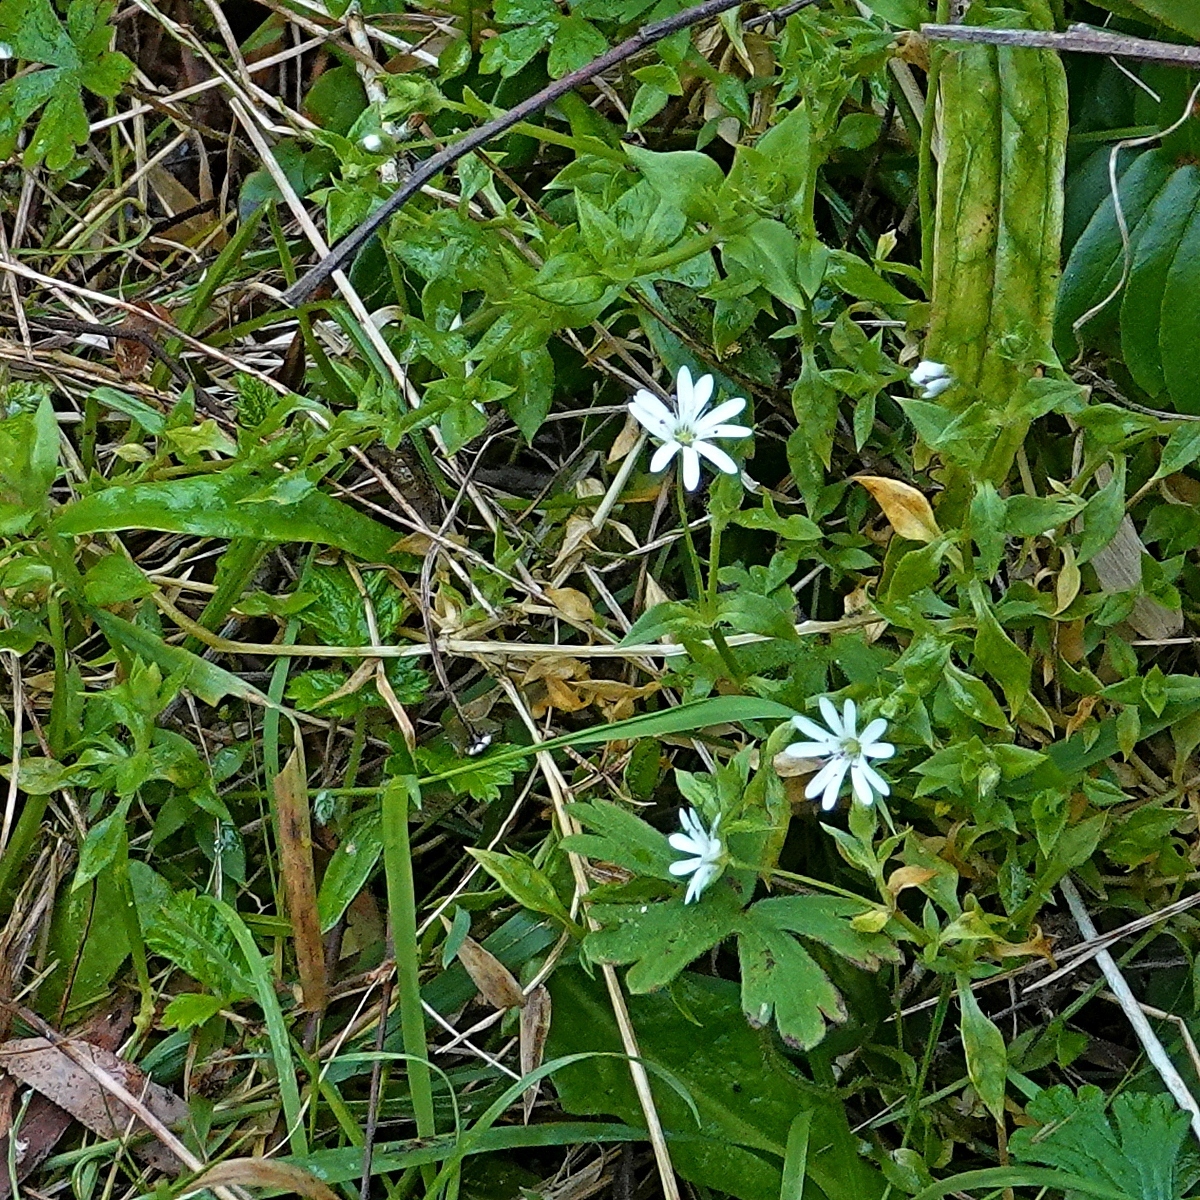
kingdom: Plantae
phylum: Tracheophyta
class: Magnoliopsida
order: Caryophyllales
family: Caryophyllaceae
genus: Stellaria
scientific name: Stellaria flaccida
